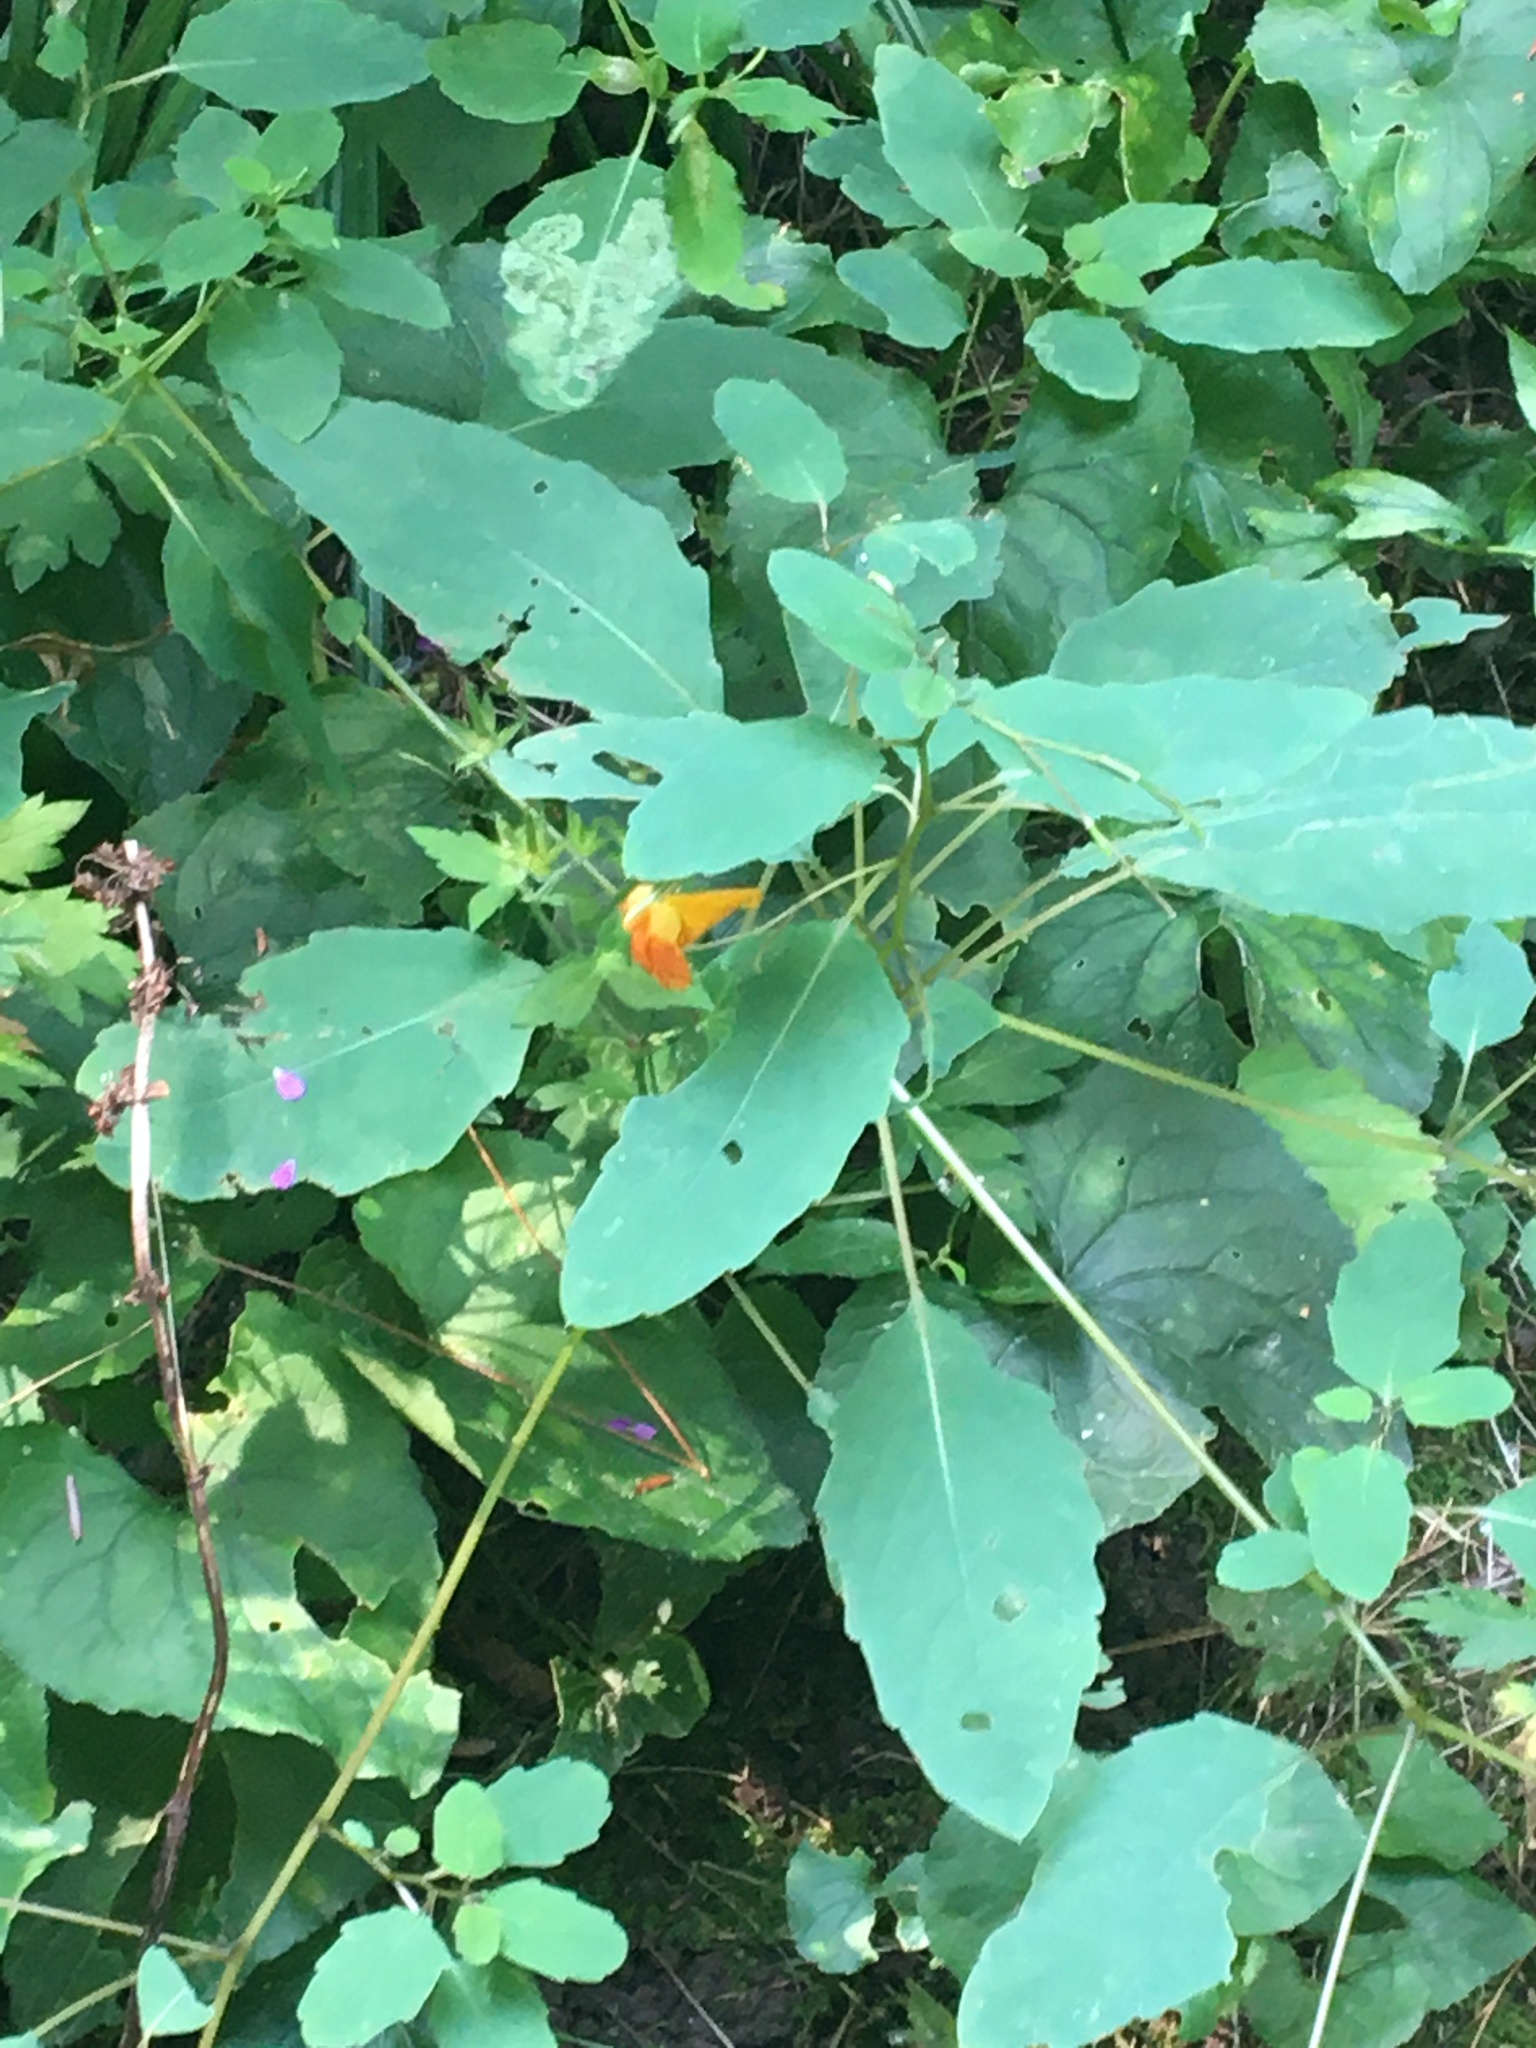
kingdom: Plantae
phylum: Tracheophyta
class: Magnoliopsida
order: Ericales
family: Balsaminaceae
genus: Impatiens
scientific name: Impatiens capensis
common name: Orange balsam
